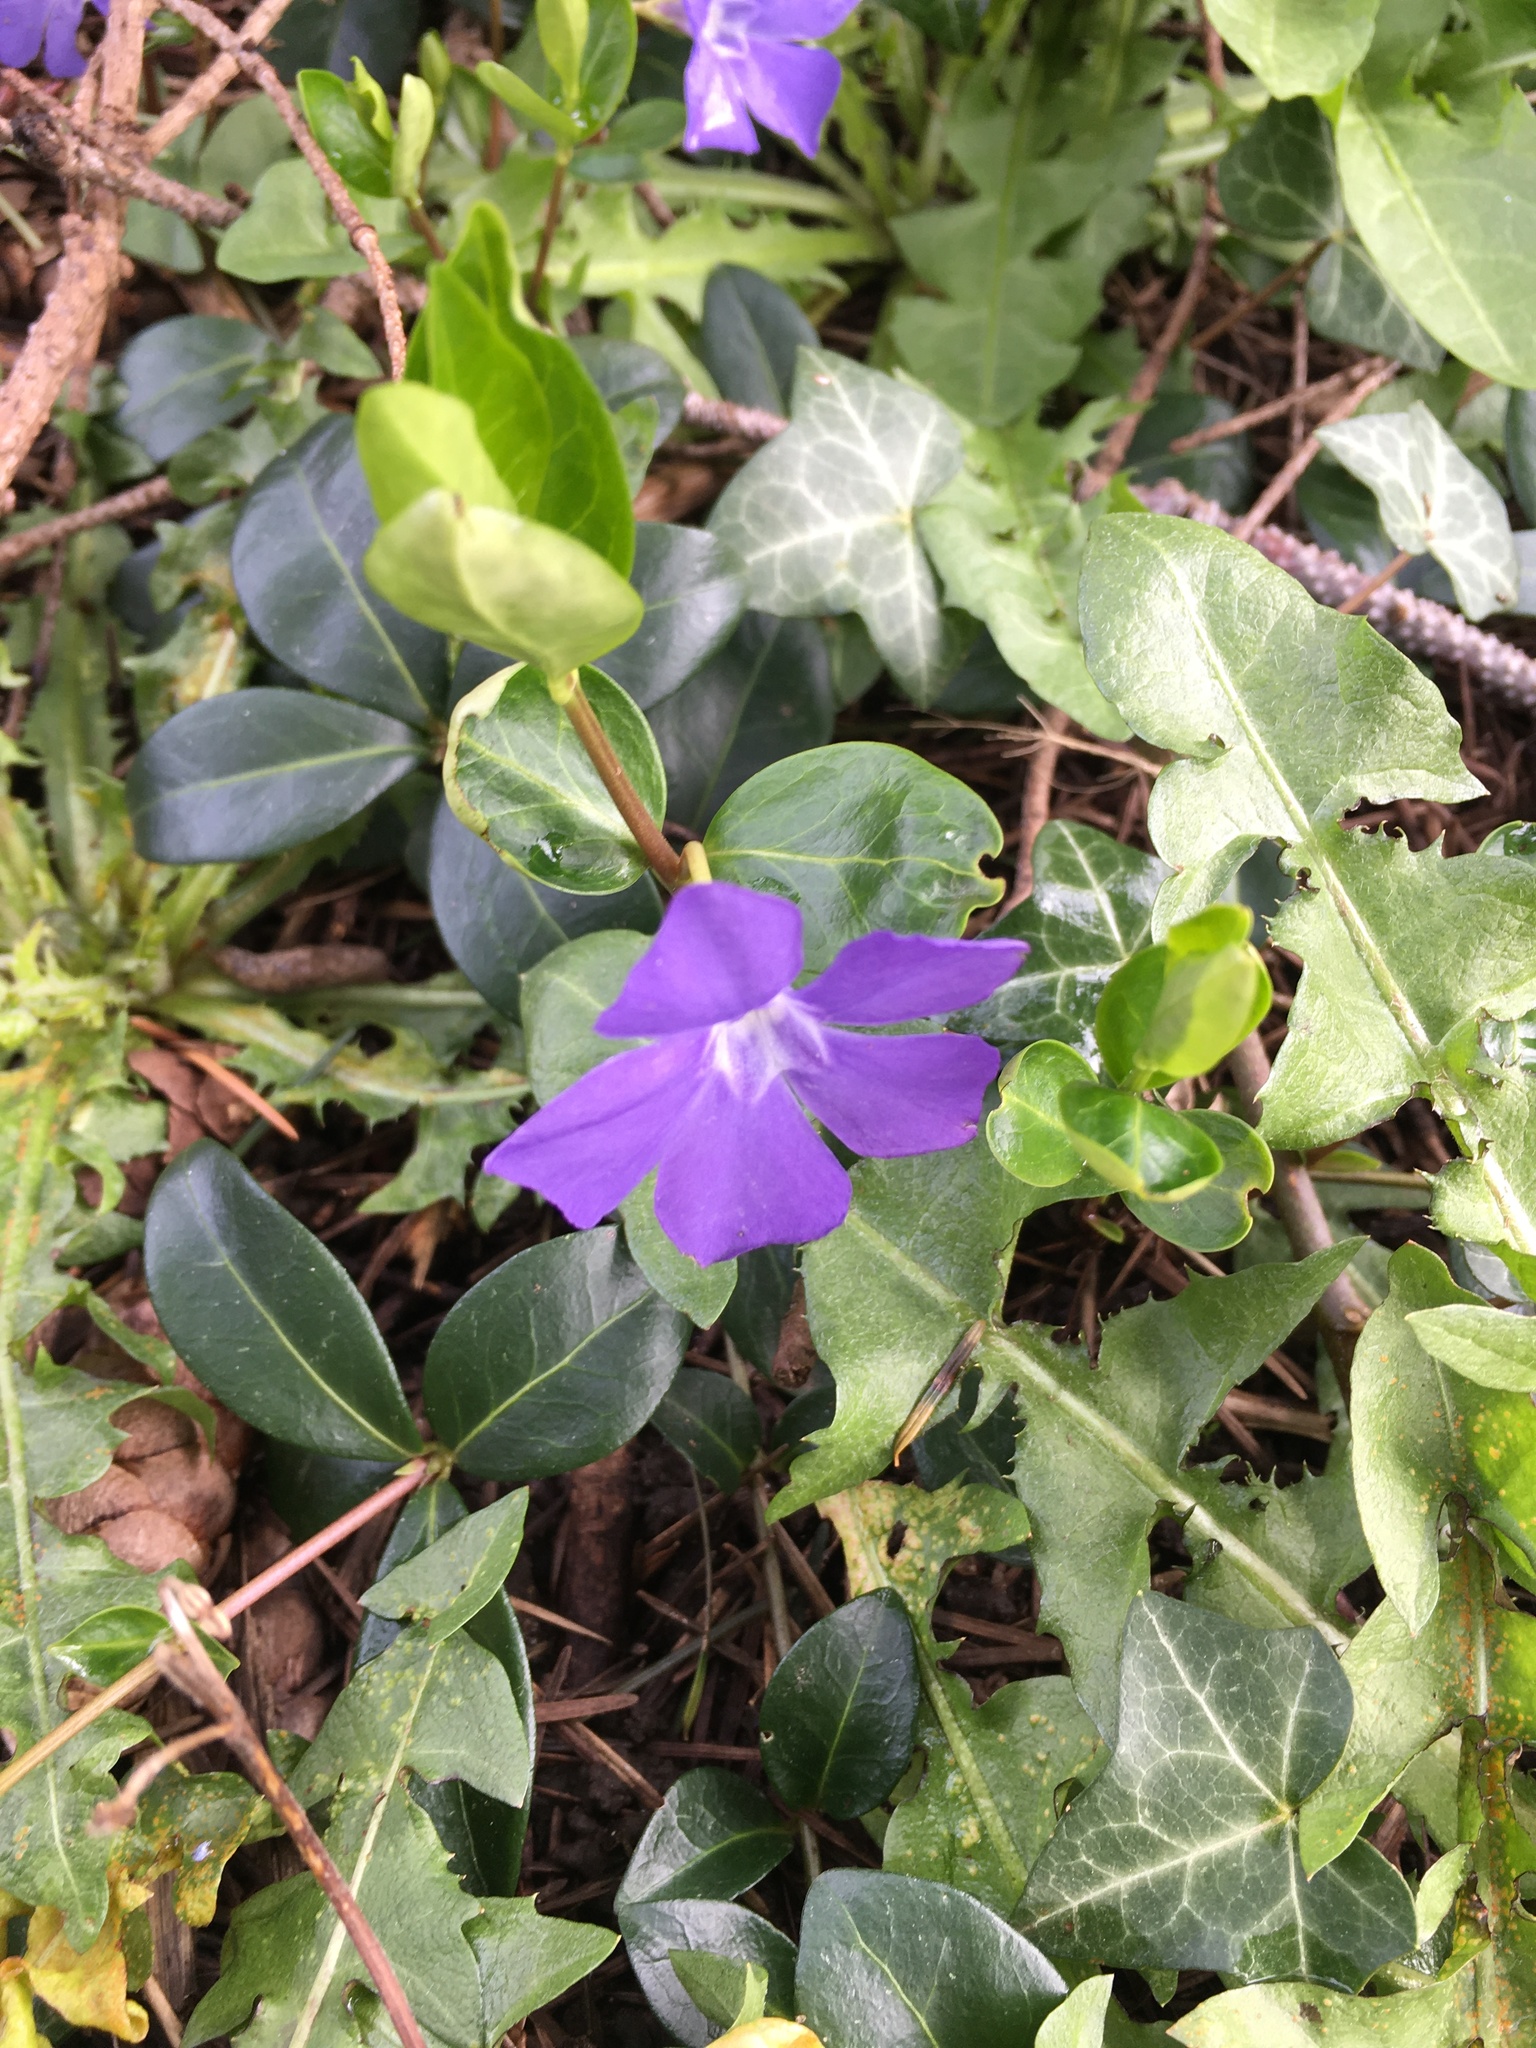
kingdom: Plantae
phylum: Tracheophyta
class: Magnoliopsida
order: Gentianales
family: Apocynaceae
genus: Vinca
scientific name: Vinca minor
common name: Lesser periwinkle
